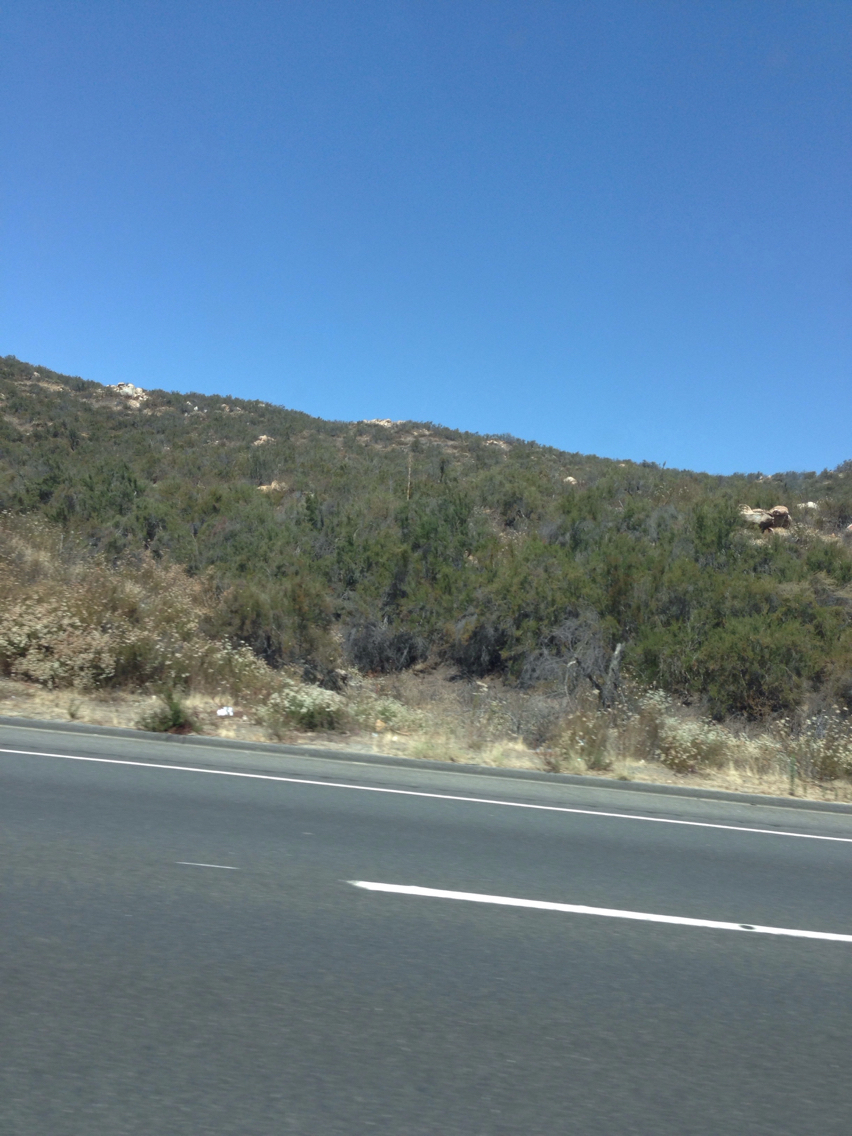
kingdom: Plantae
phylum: Tracheophyta
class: Magnoliopsida
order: Rosales
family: Rosaceae
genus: Adenostoma
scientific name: Adenostoma fasciculatum
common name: Chamise
